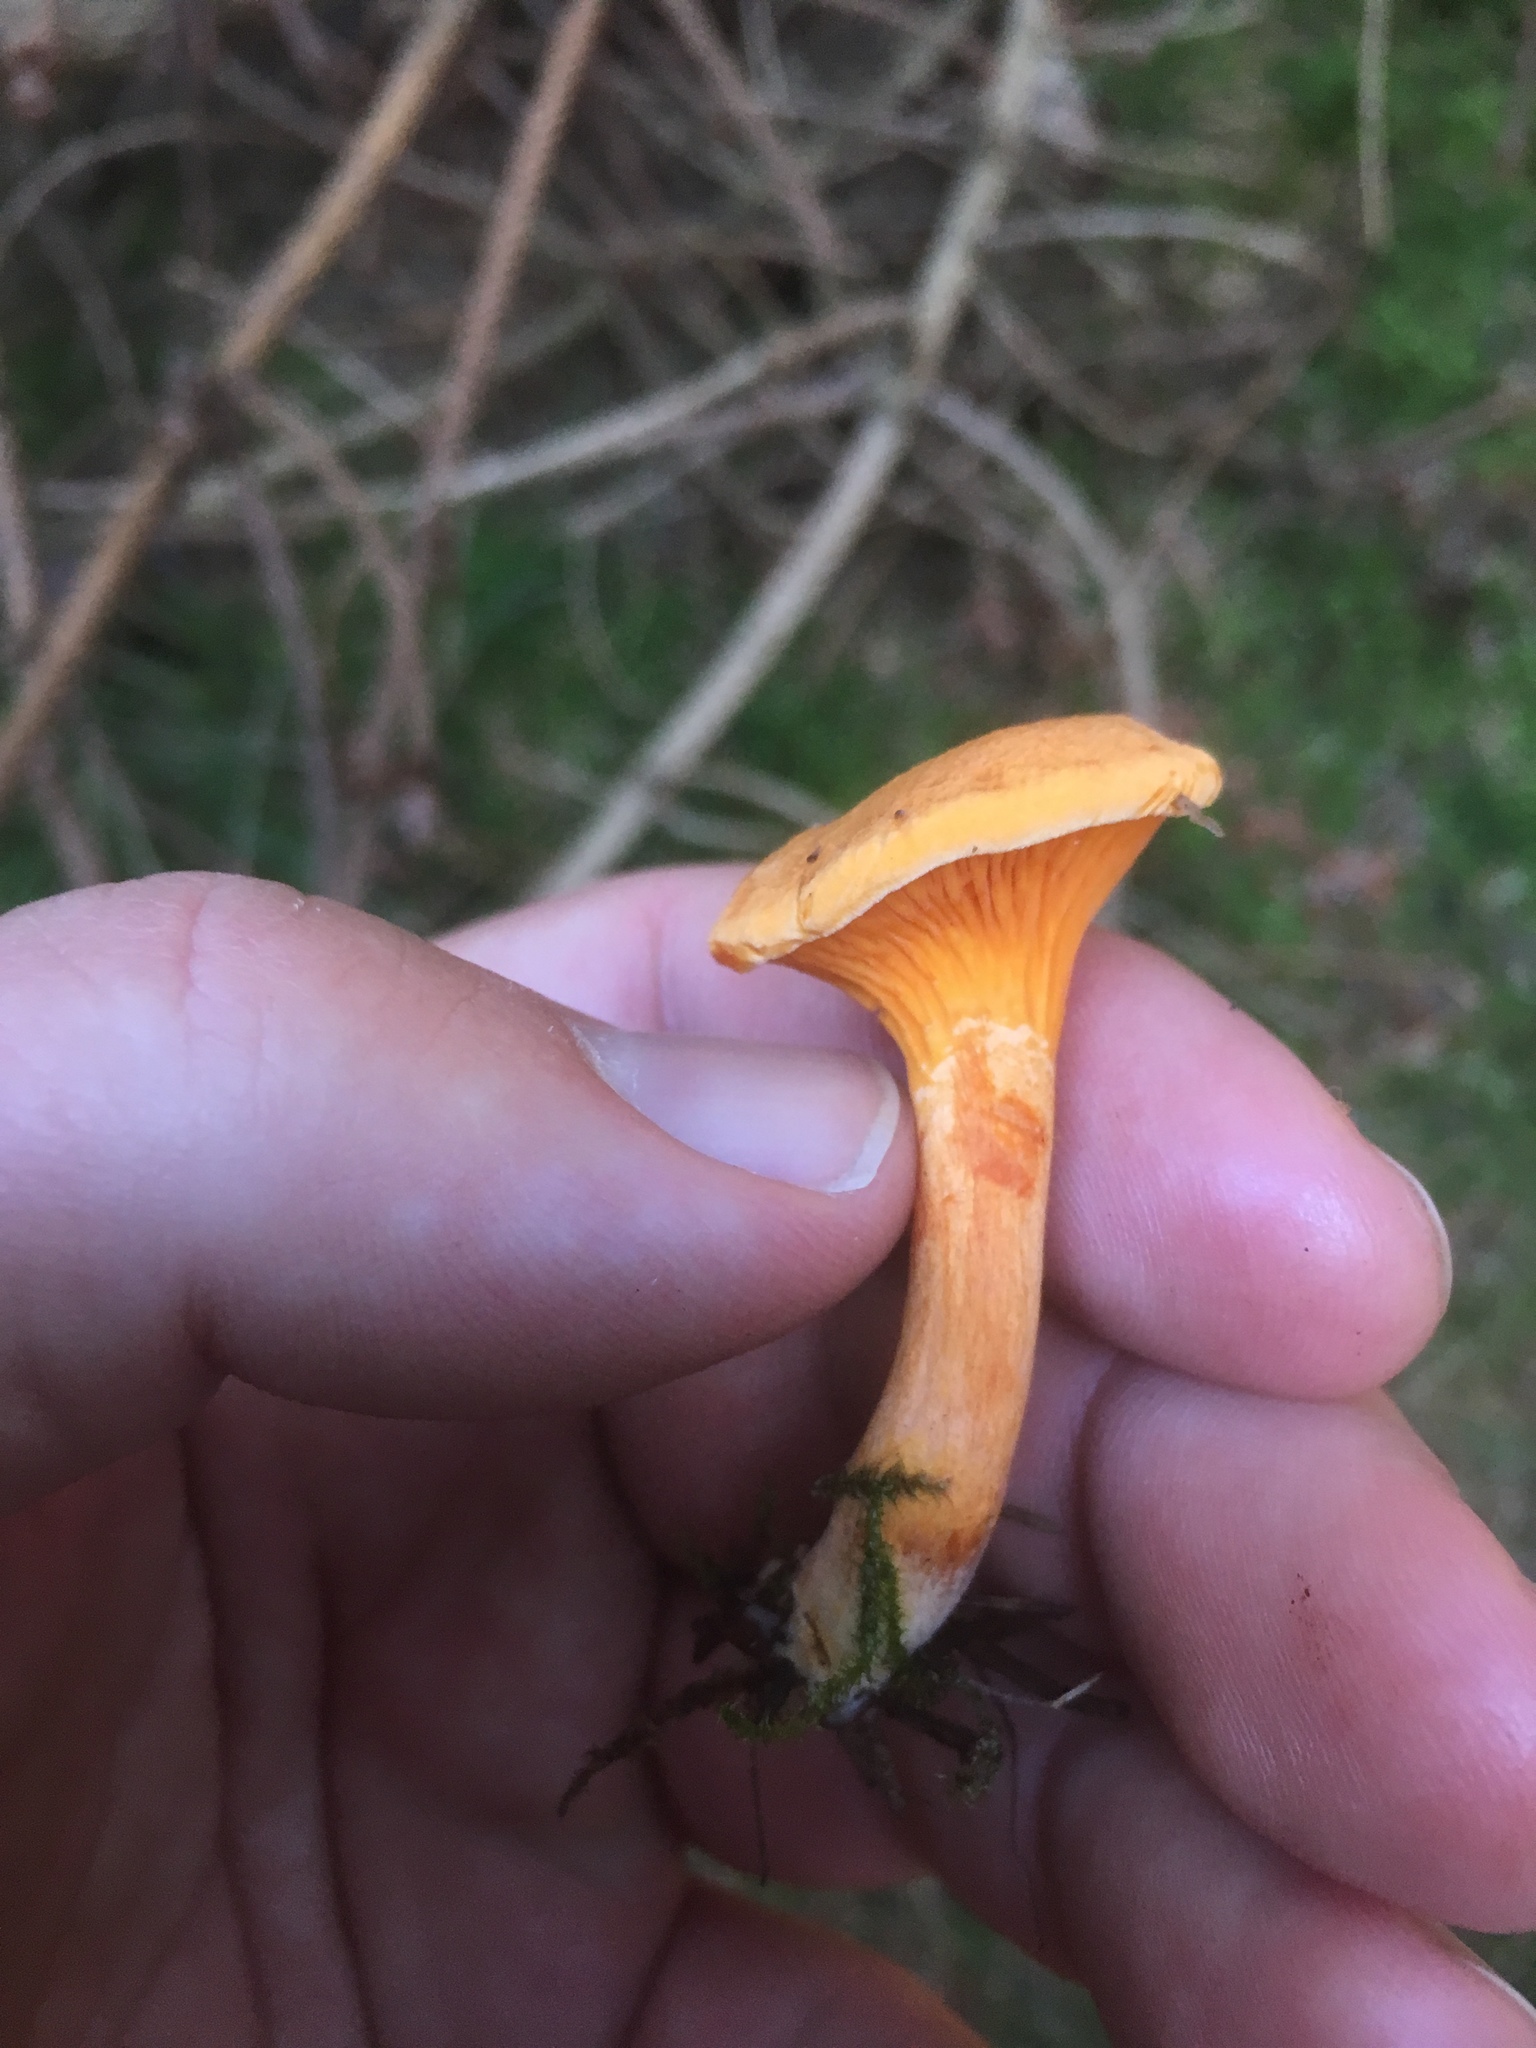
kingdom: Fungi
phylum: Basidiomycota
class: Agaricomycetes
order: Boletales
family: Hygrophoropsidaceae
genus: Hygrophoropsis
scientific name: Hygrophoropsis aurantiaca
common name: False chanterelle
